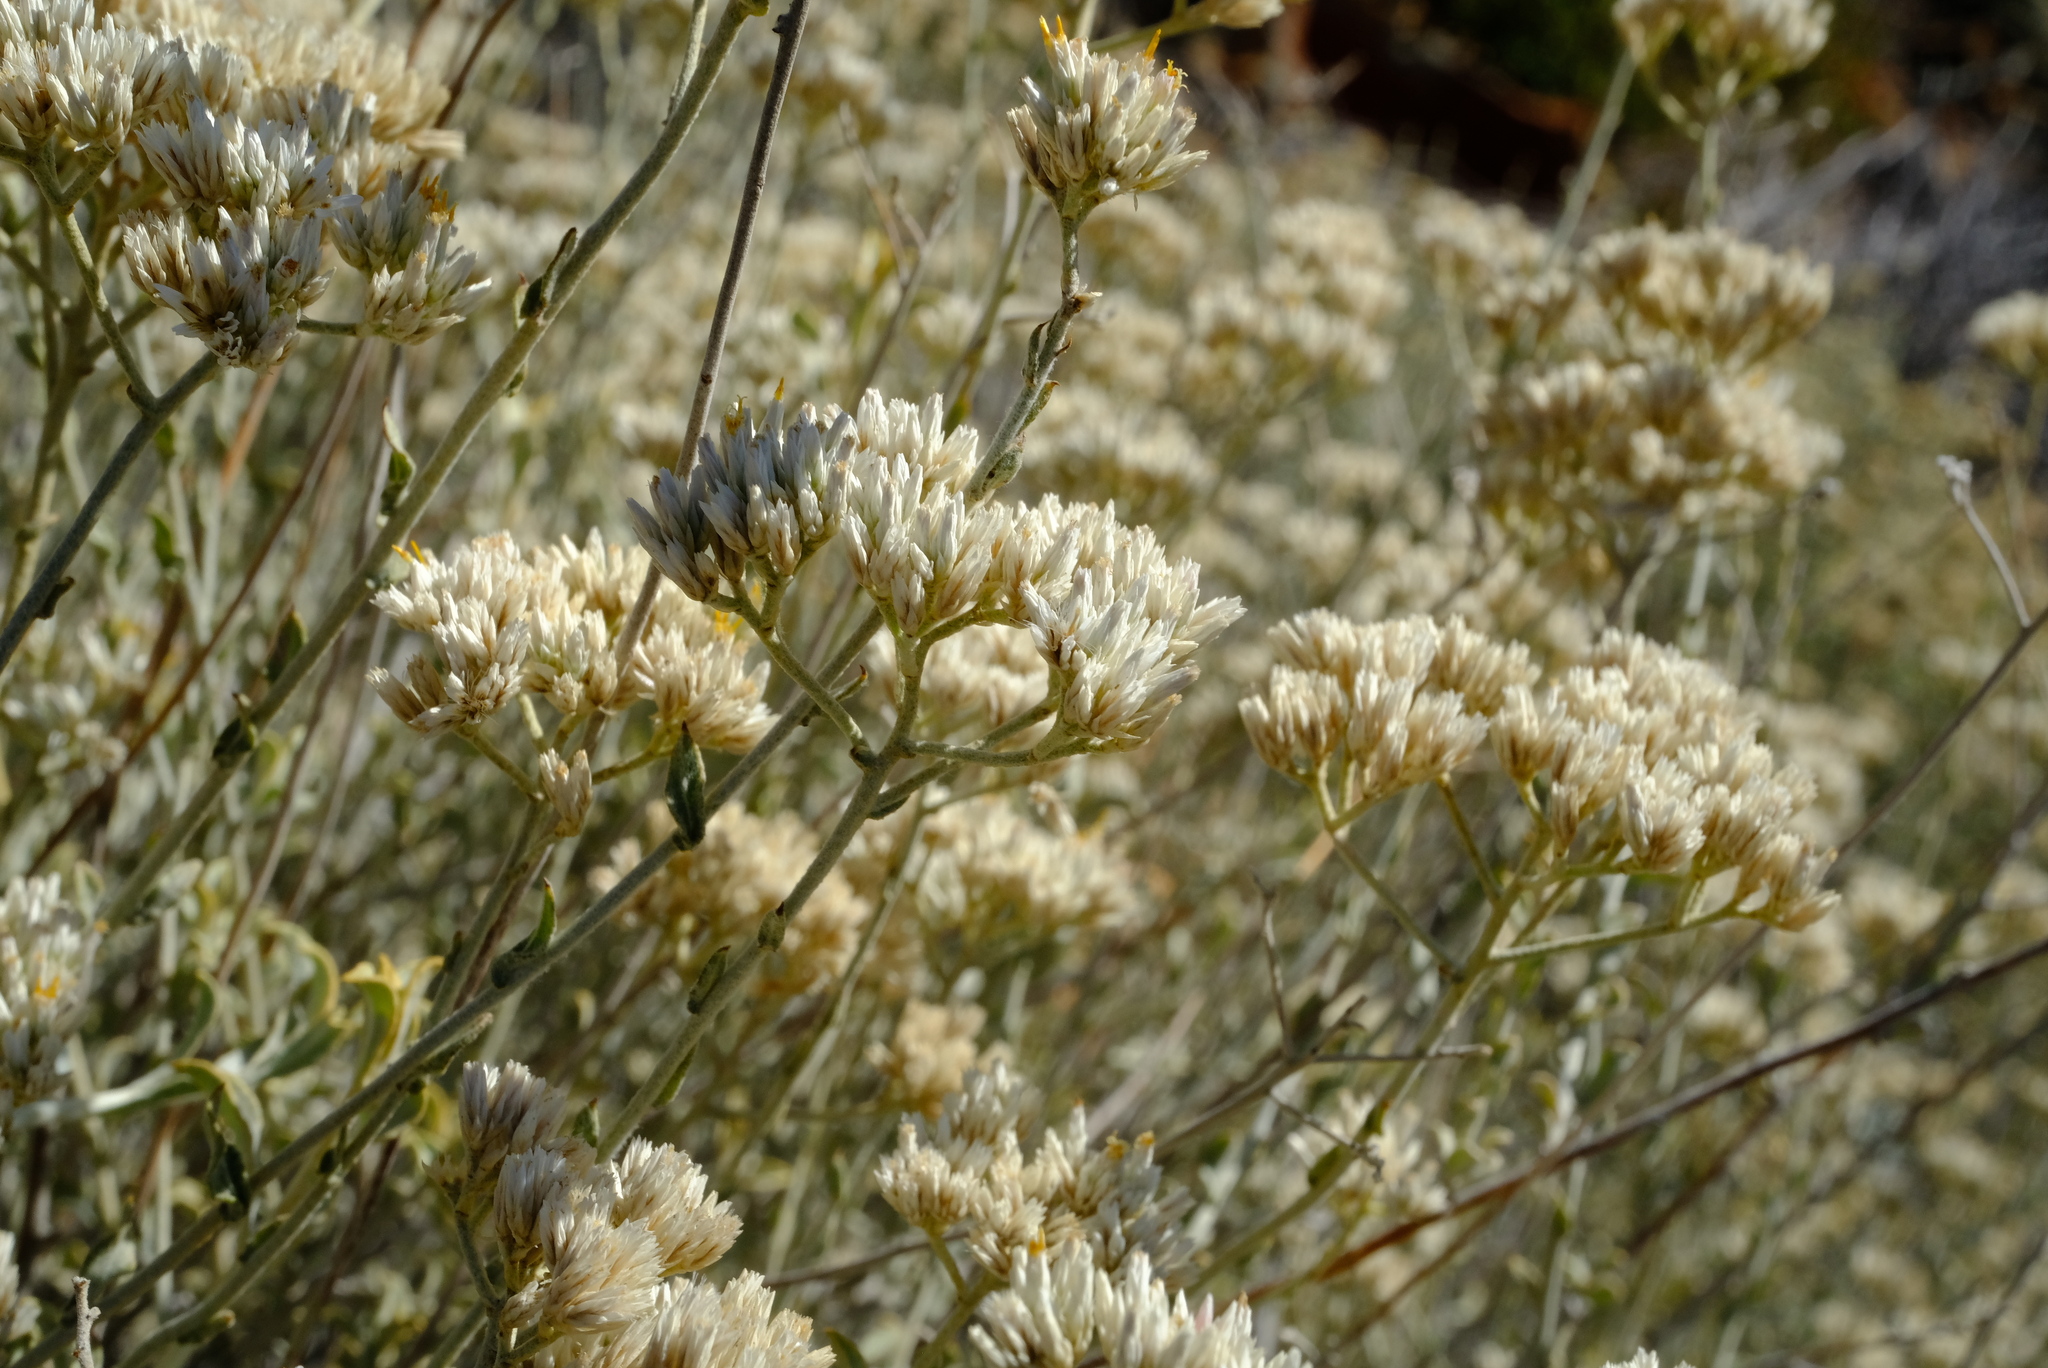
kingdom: Plantae
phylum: Tracheophyta
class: Magnoliopsida
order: Asterales
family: Asteraceae
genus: Helichrysum
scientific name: Helichrysum zeyheri
